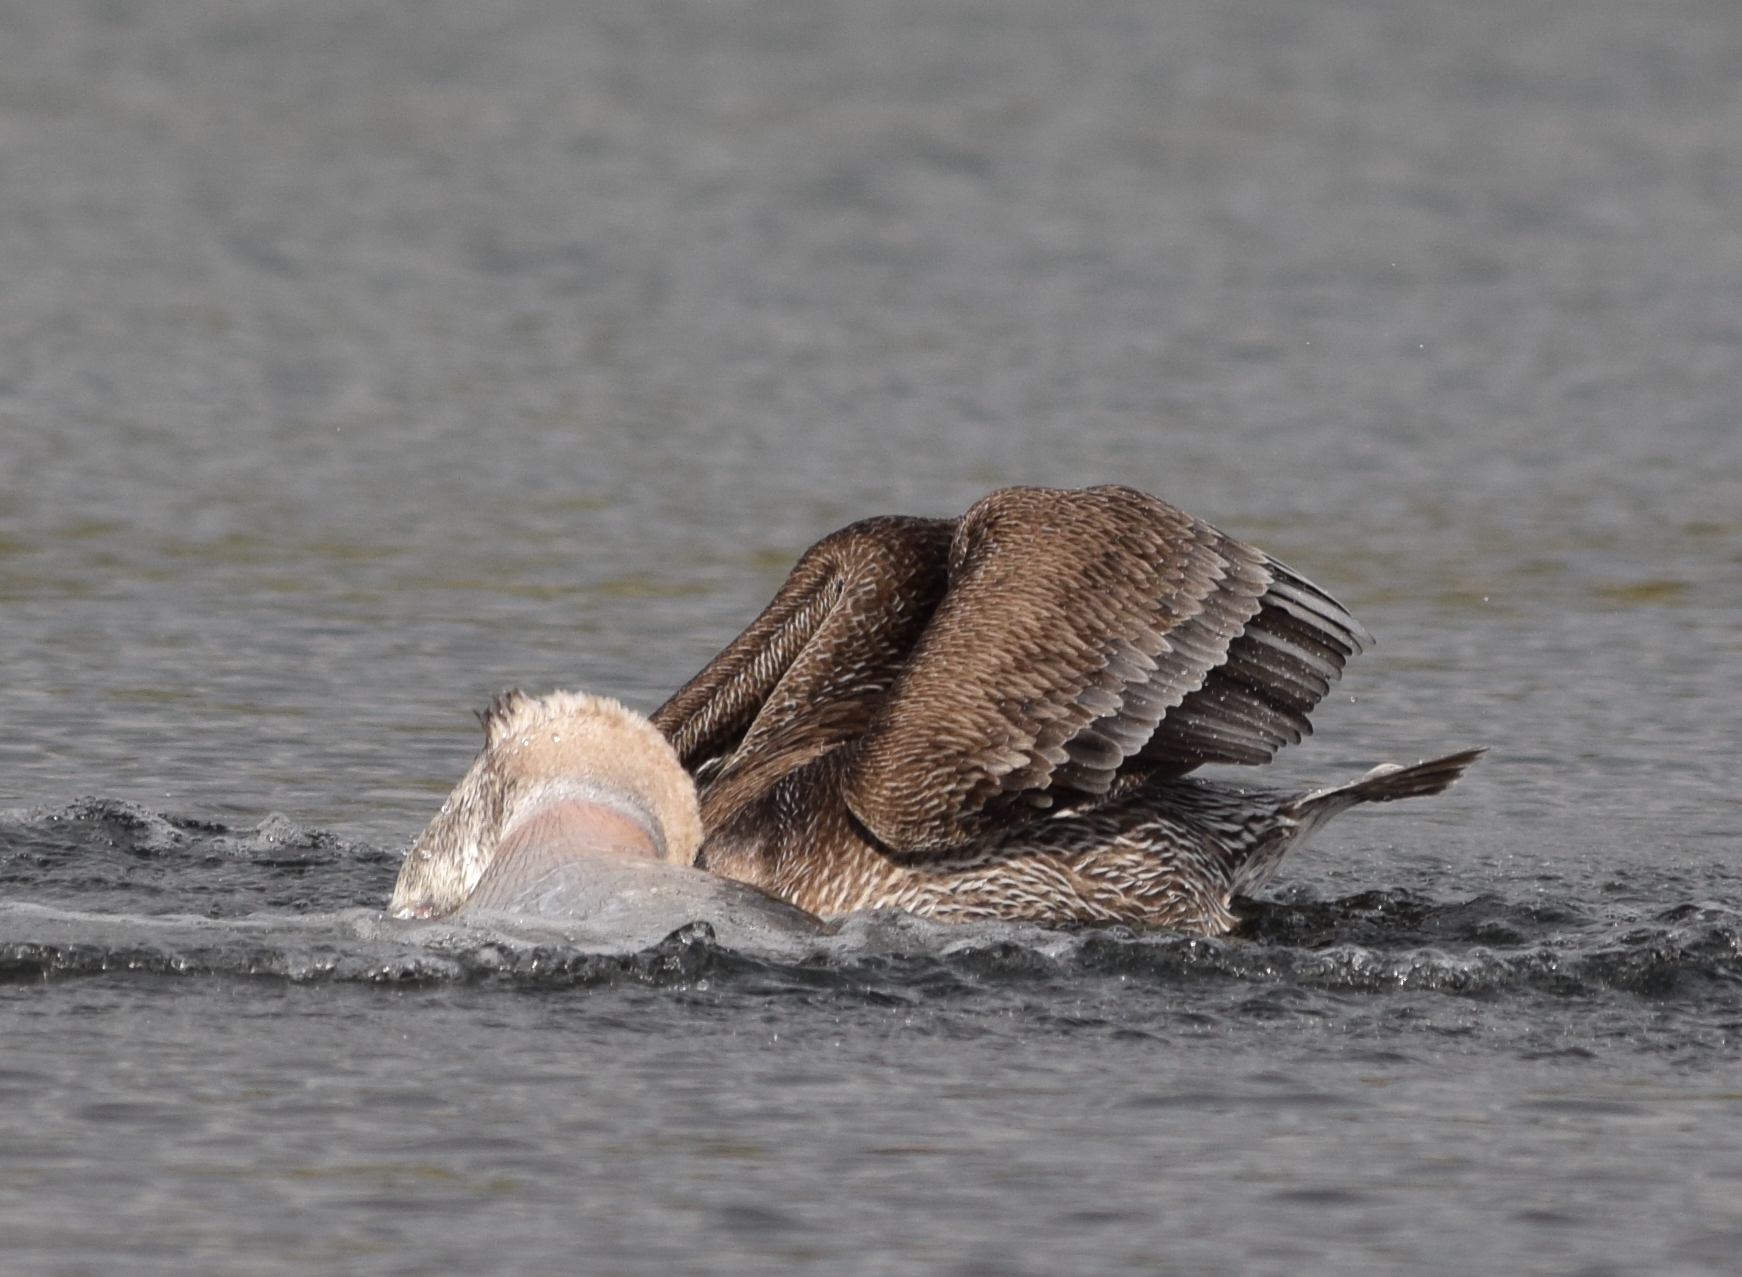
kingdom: Animalia
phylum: Chordata
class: Aves
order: Pelecaniformes
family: Pelecanidae
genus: Pelecanus
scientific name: Pelecanus occidentalis
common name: Brown pelican
